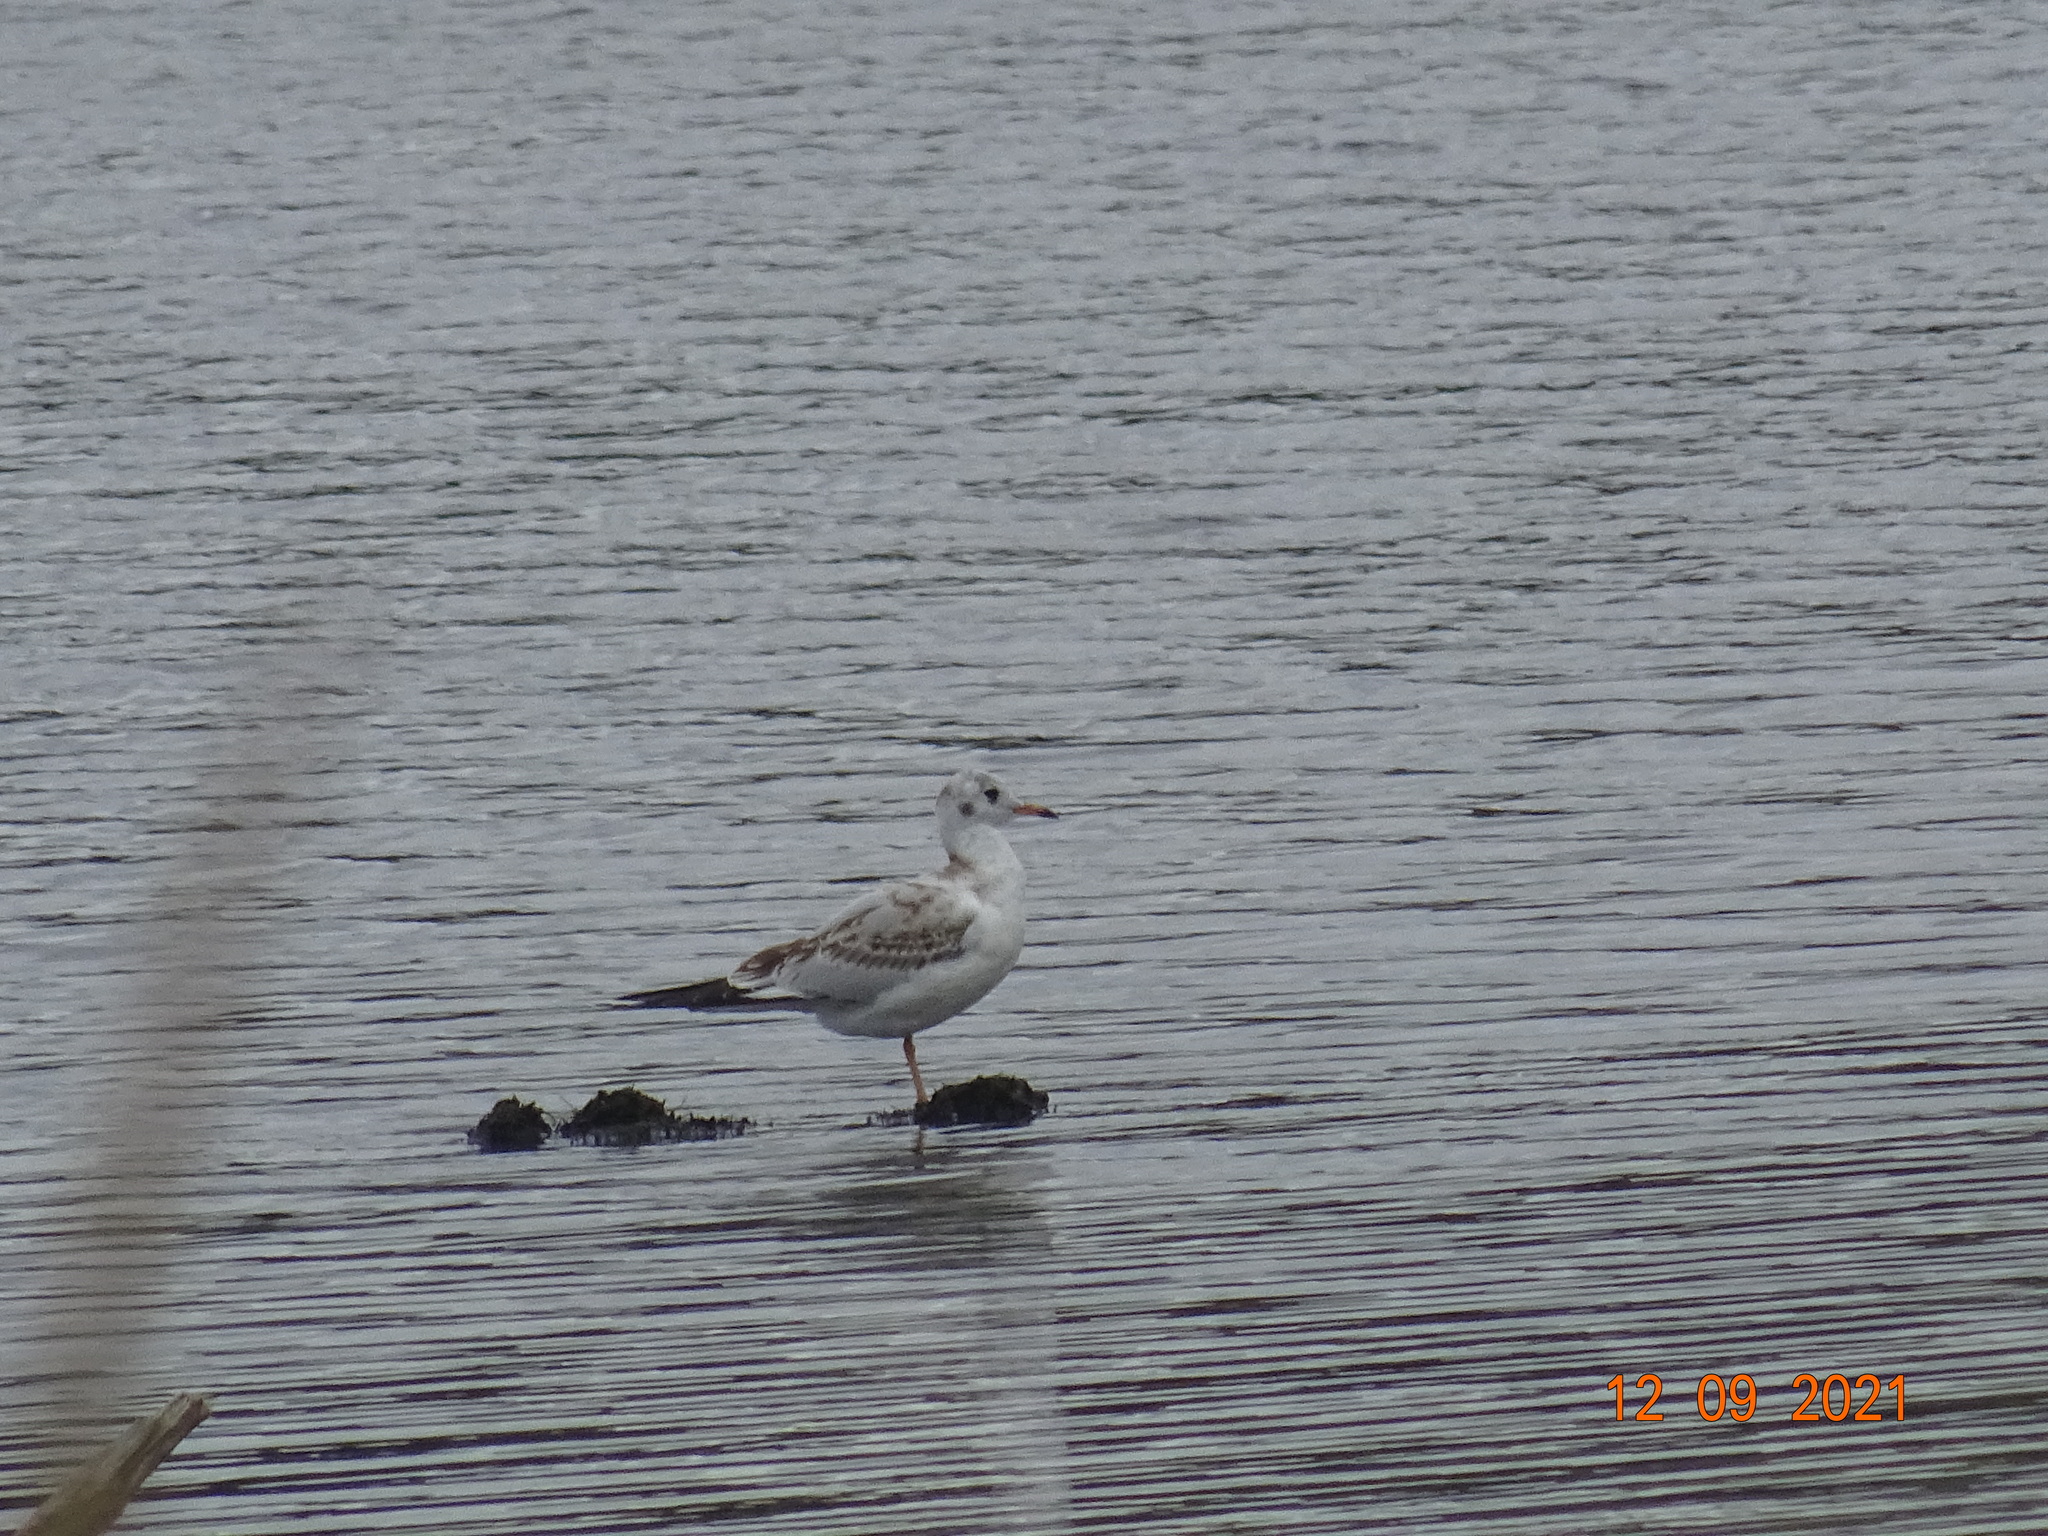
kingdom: Animalia
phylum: Chordata
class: Aves
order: Charadriiformes
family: Laridae
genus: Chroicocephalus
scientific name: Chroicocephalus ridibundus
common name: Black-headed gull
